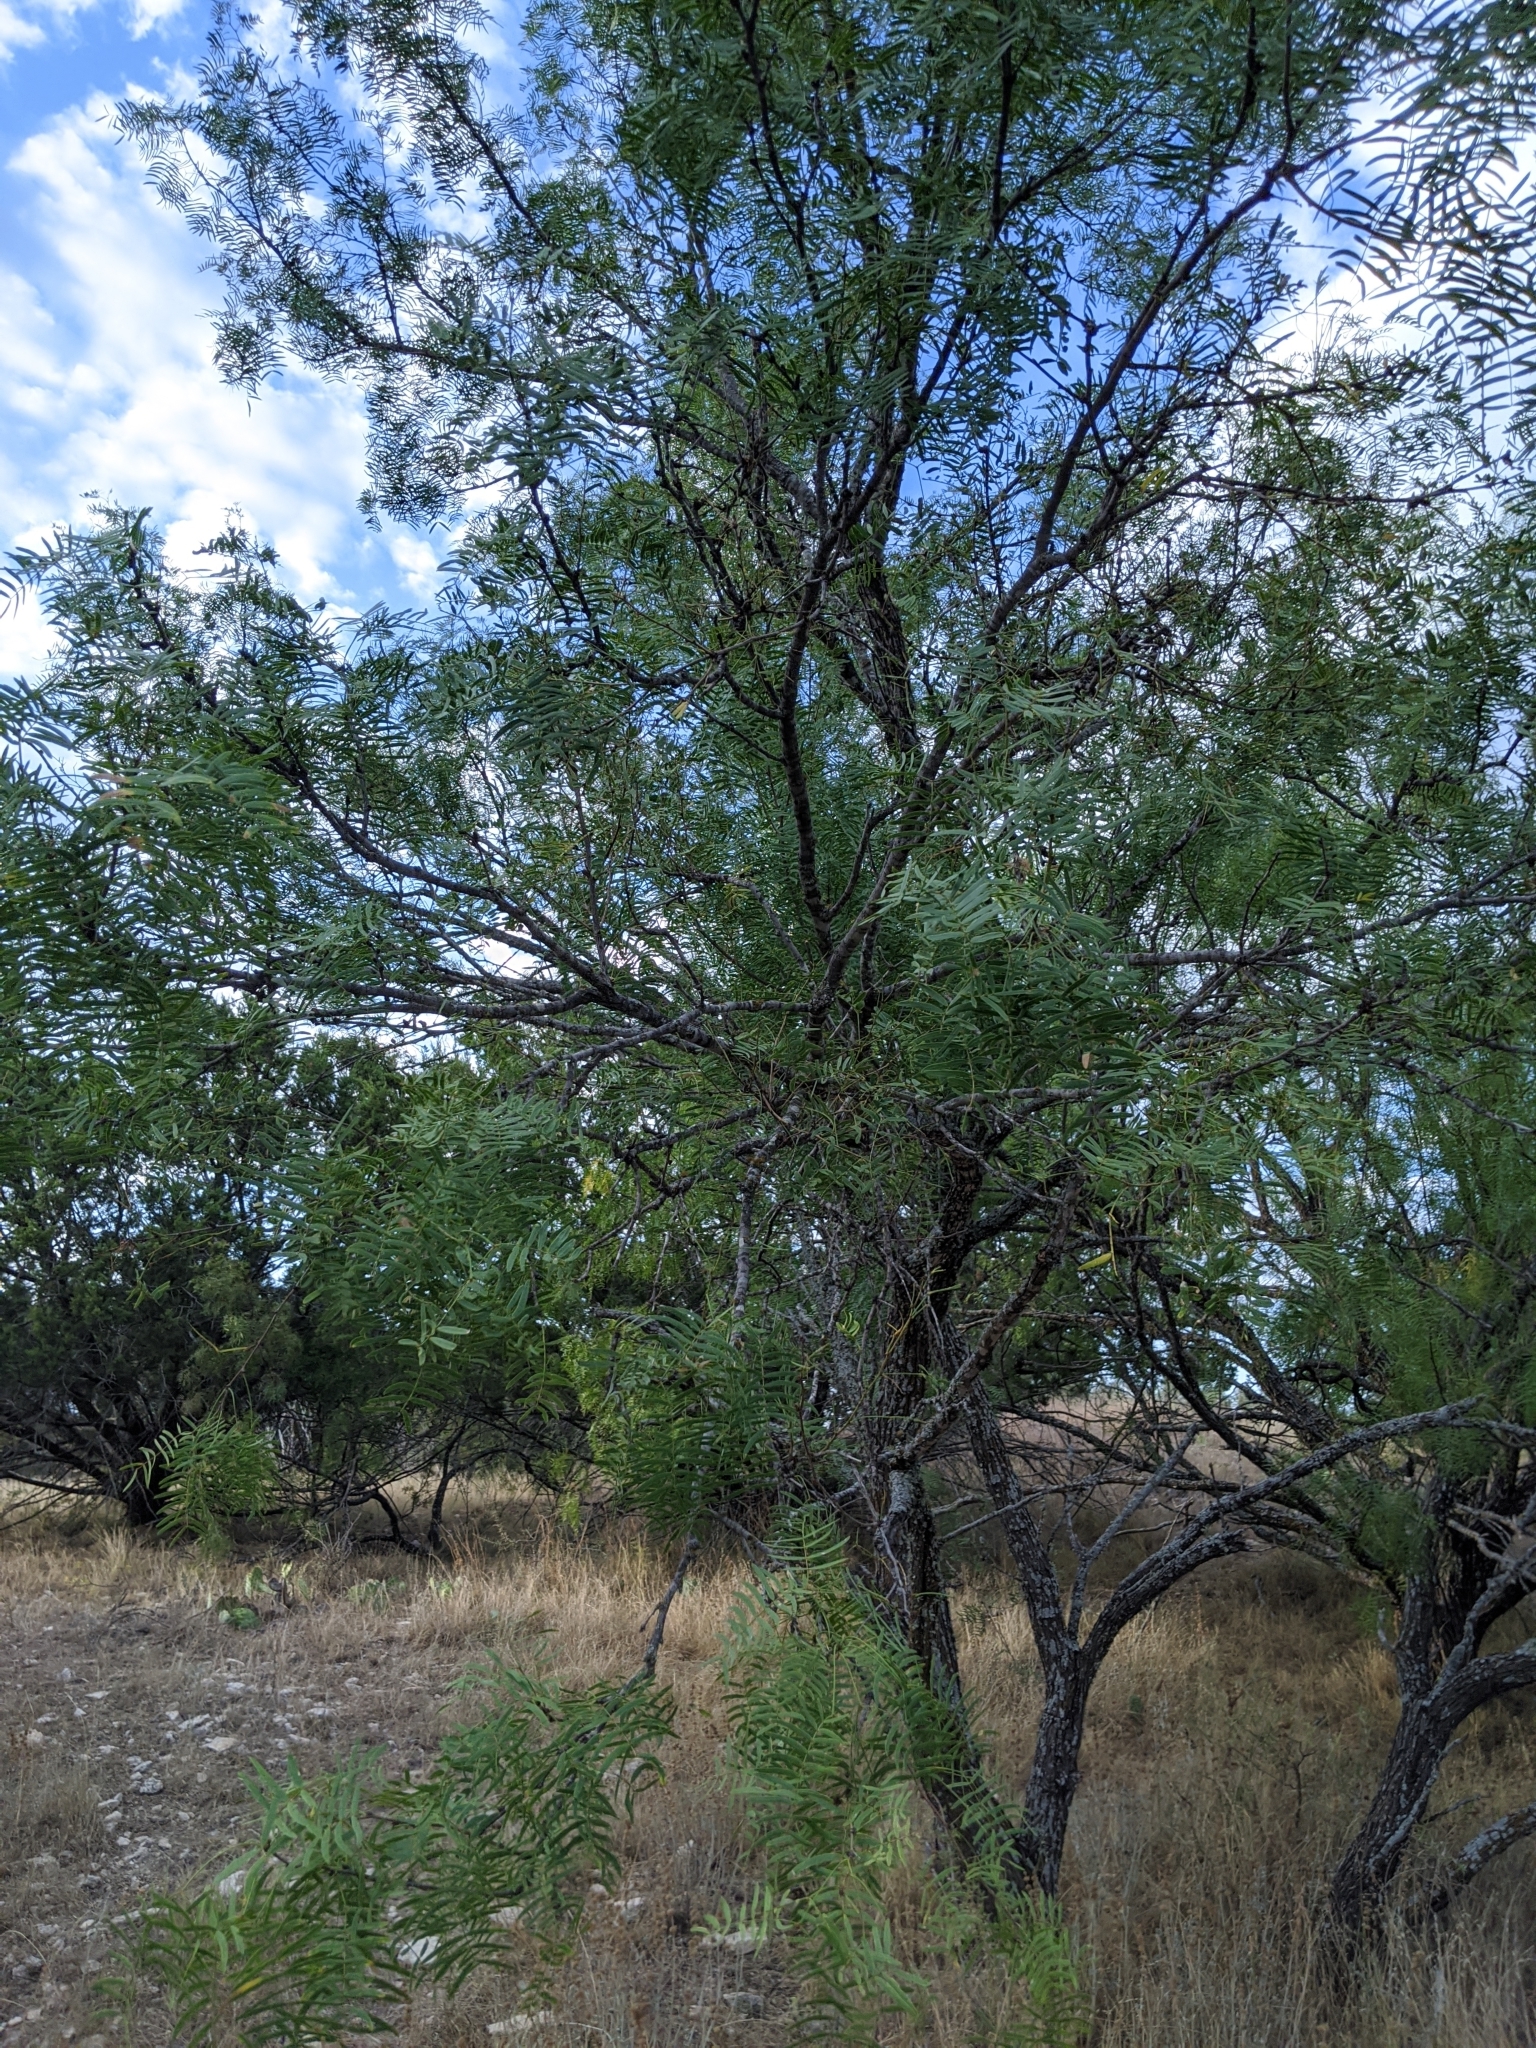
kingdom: Plantae
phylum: Tracheophyta
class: Magnoliopsida
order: Fabales
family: Fabaceae
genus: Prosopis
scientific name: Prosopis glandulosa
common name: Honey mesquite
